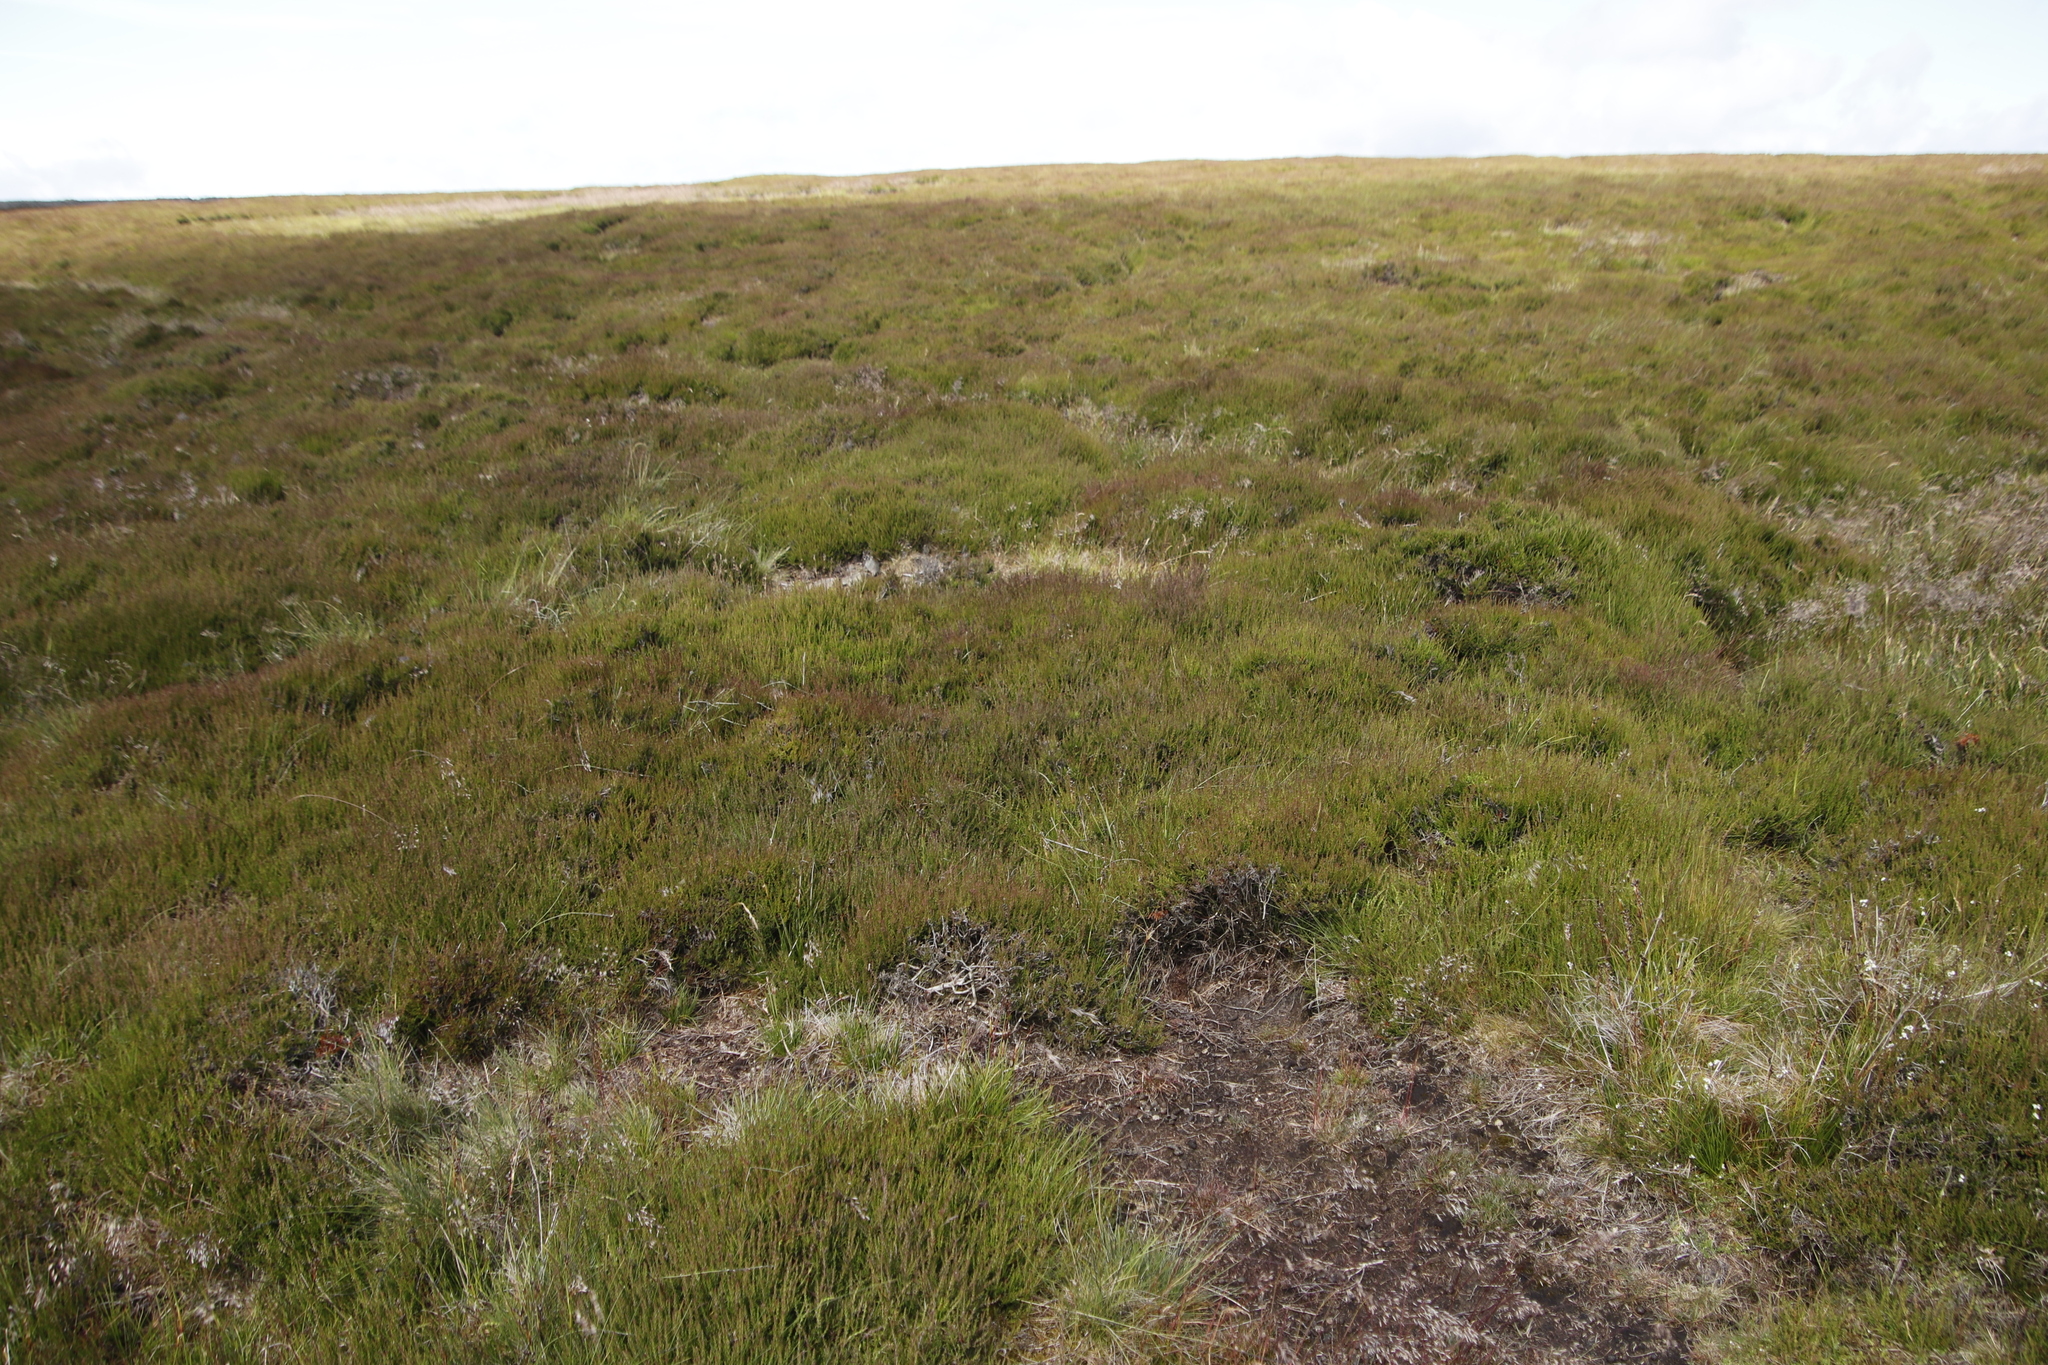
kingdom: Plantae
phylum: Tracheophyta
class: Magnoliopsida
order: Ericales
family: Ericaceae
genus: Calluna
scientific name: Calluna vulgaris
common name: Heather
